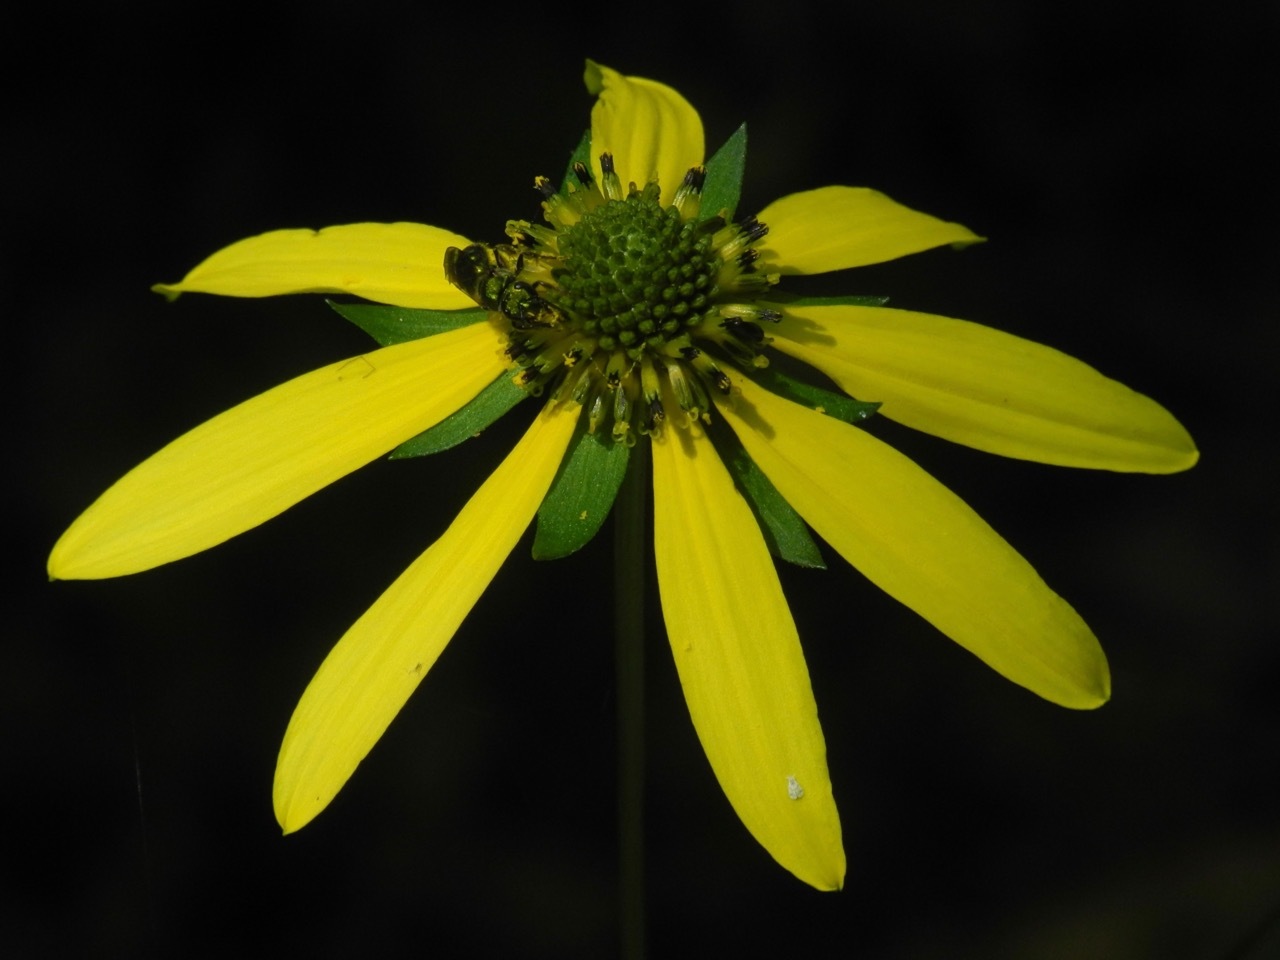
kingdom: Plantae
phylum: Tracheophyta
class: Magnoliopsida
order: Asterales
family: Asteraceae
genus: Rudbeckia
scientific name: Rudbeckia laciniata
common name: Coneflower
